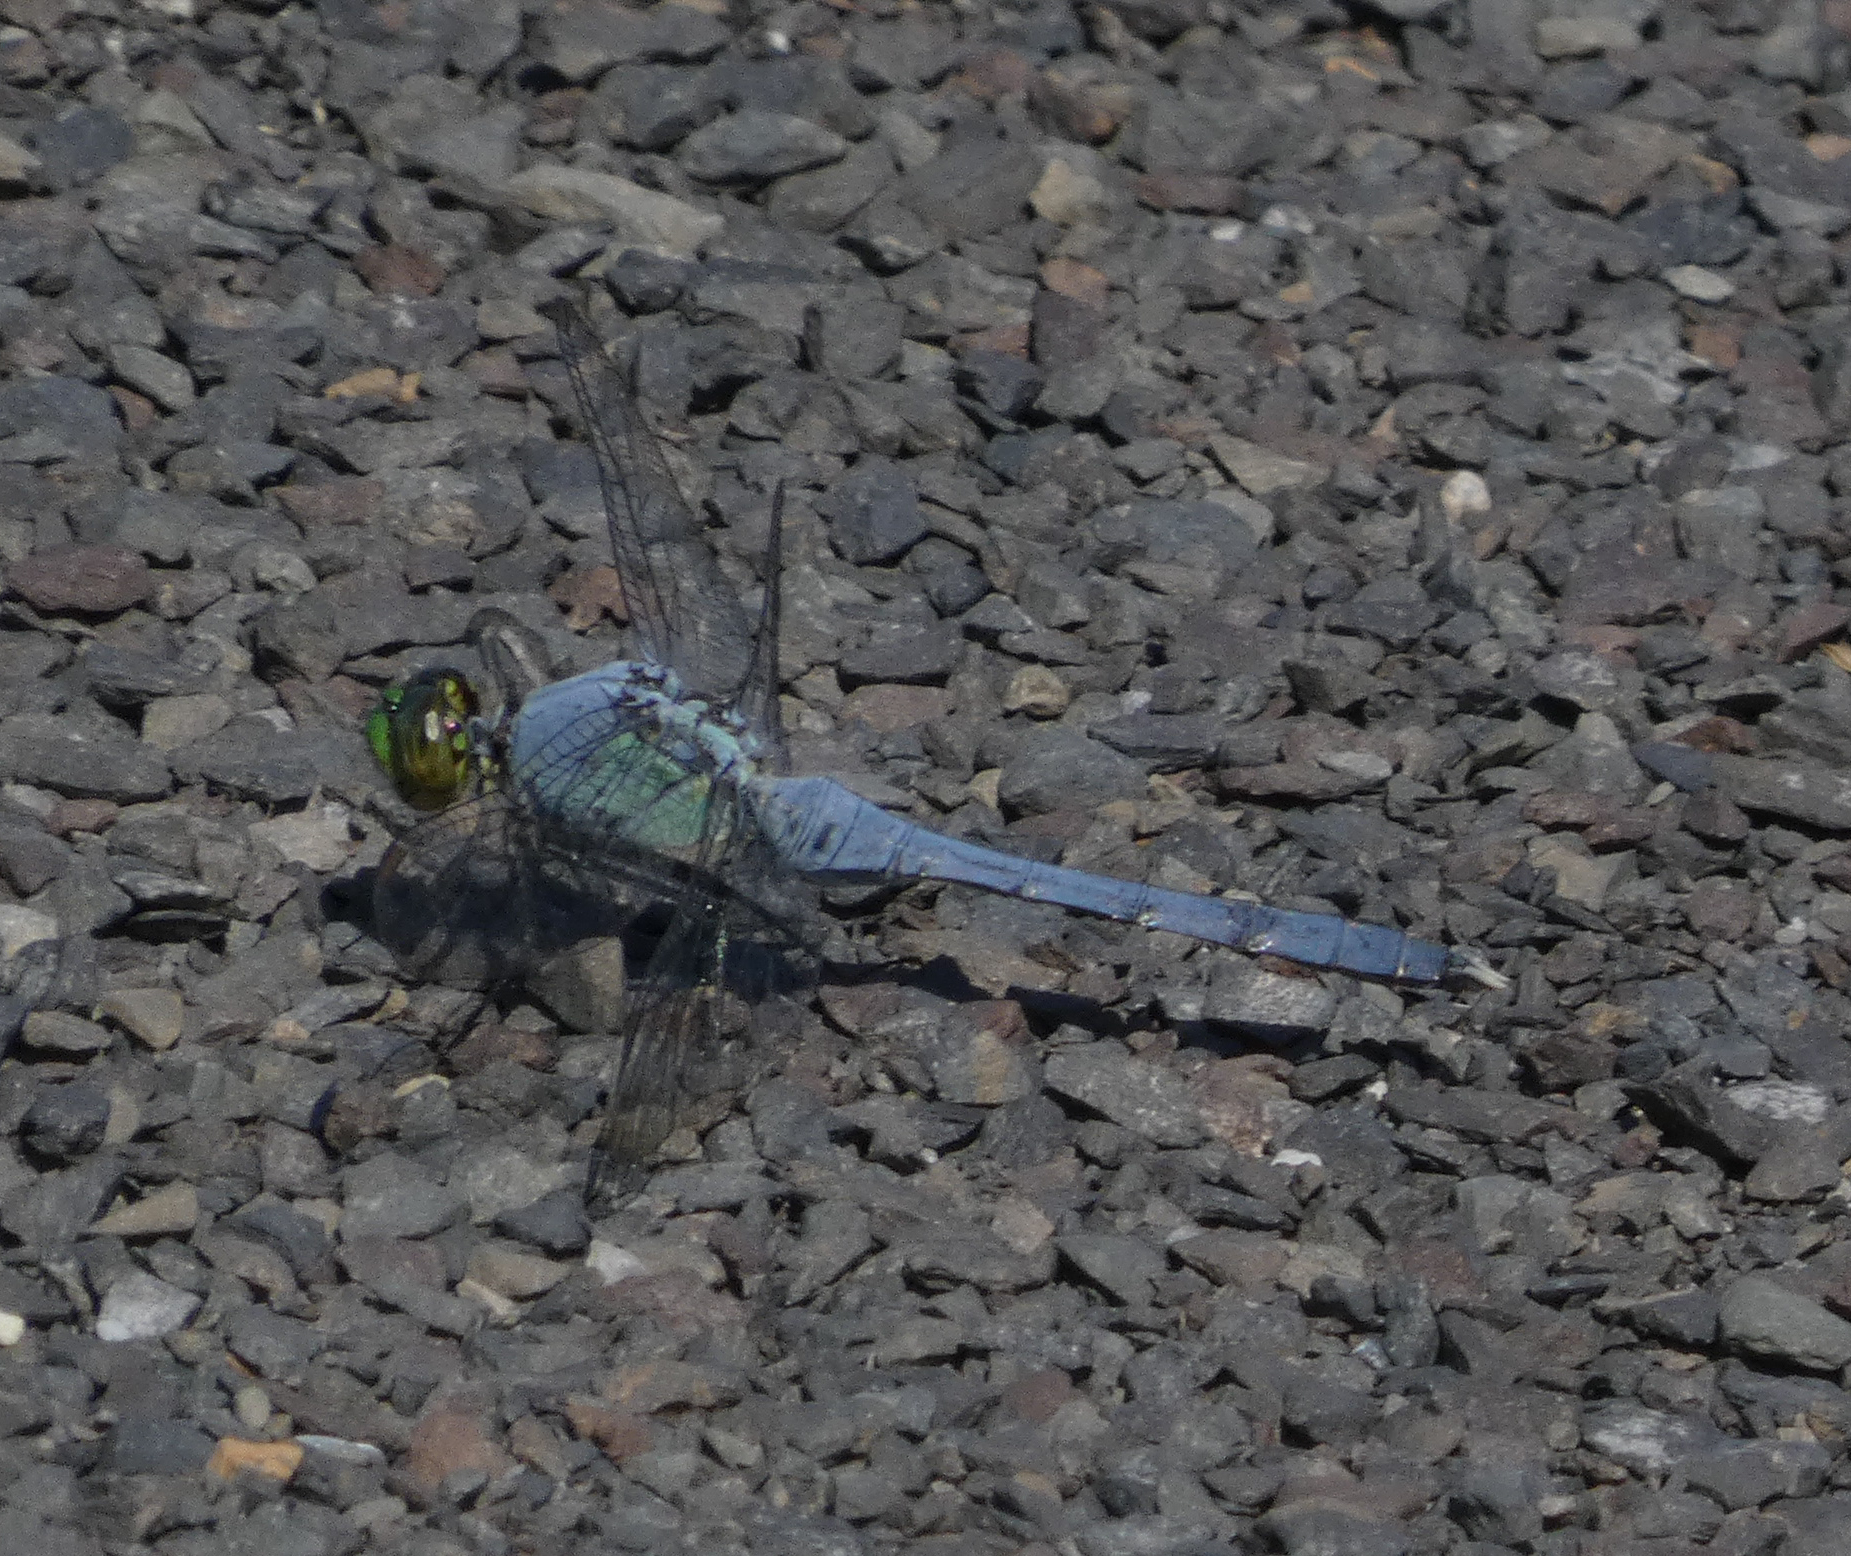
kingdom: Animalia
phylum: Arthropoda
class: Insecta
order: Odonata
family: Libellulidae
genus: Erythemis
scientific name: Erythemis simplicicollis
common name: Eastern pondhawk
